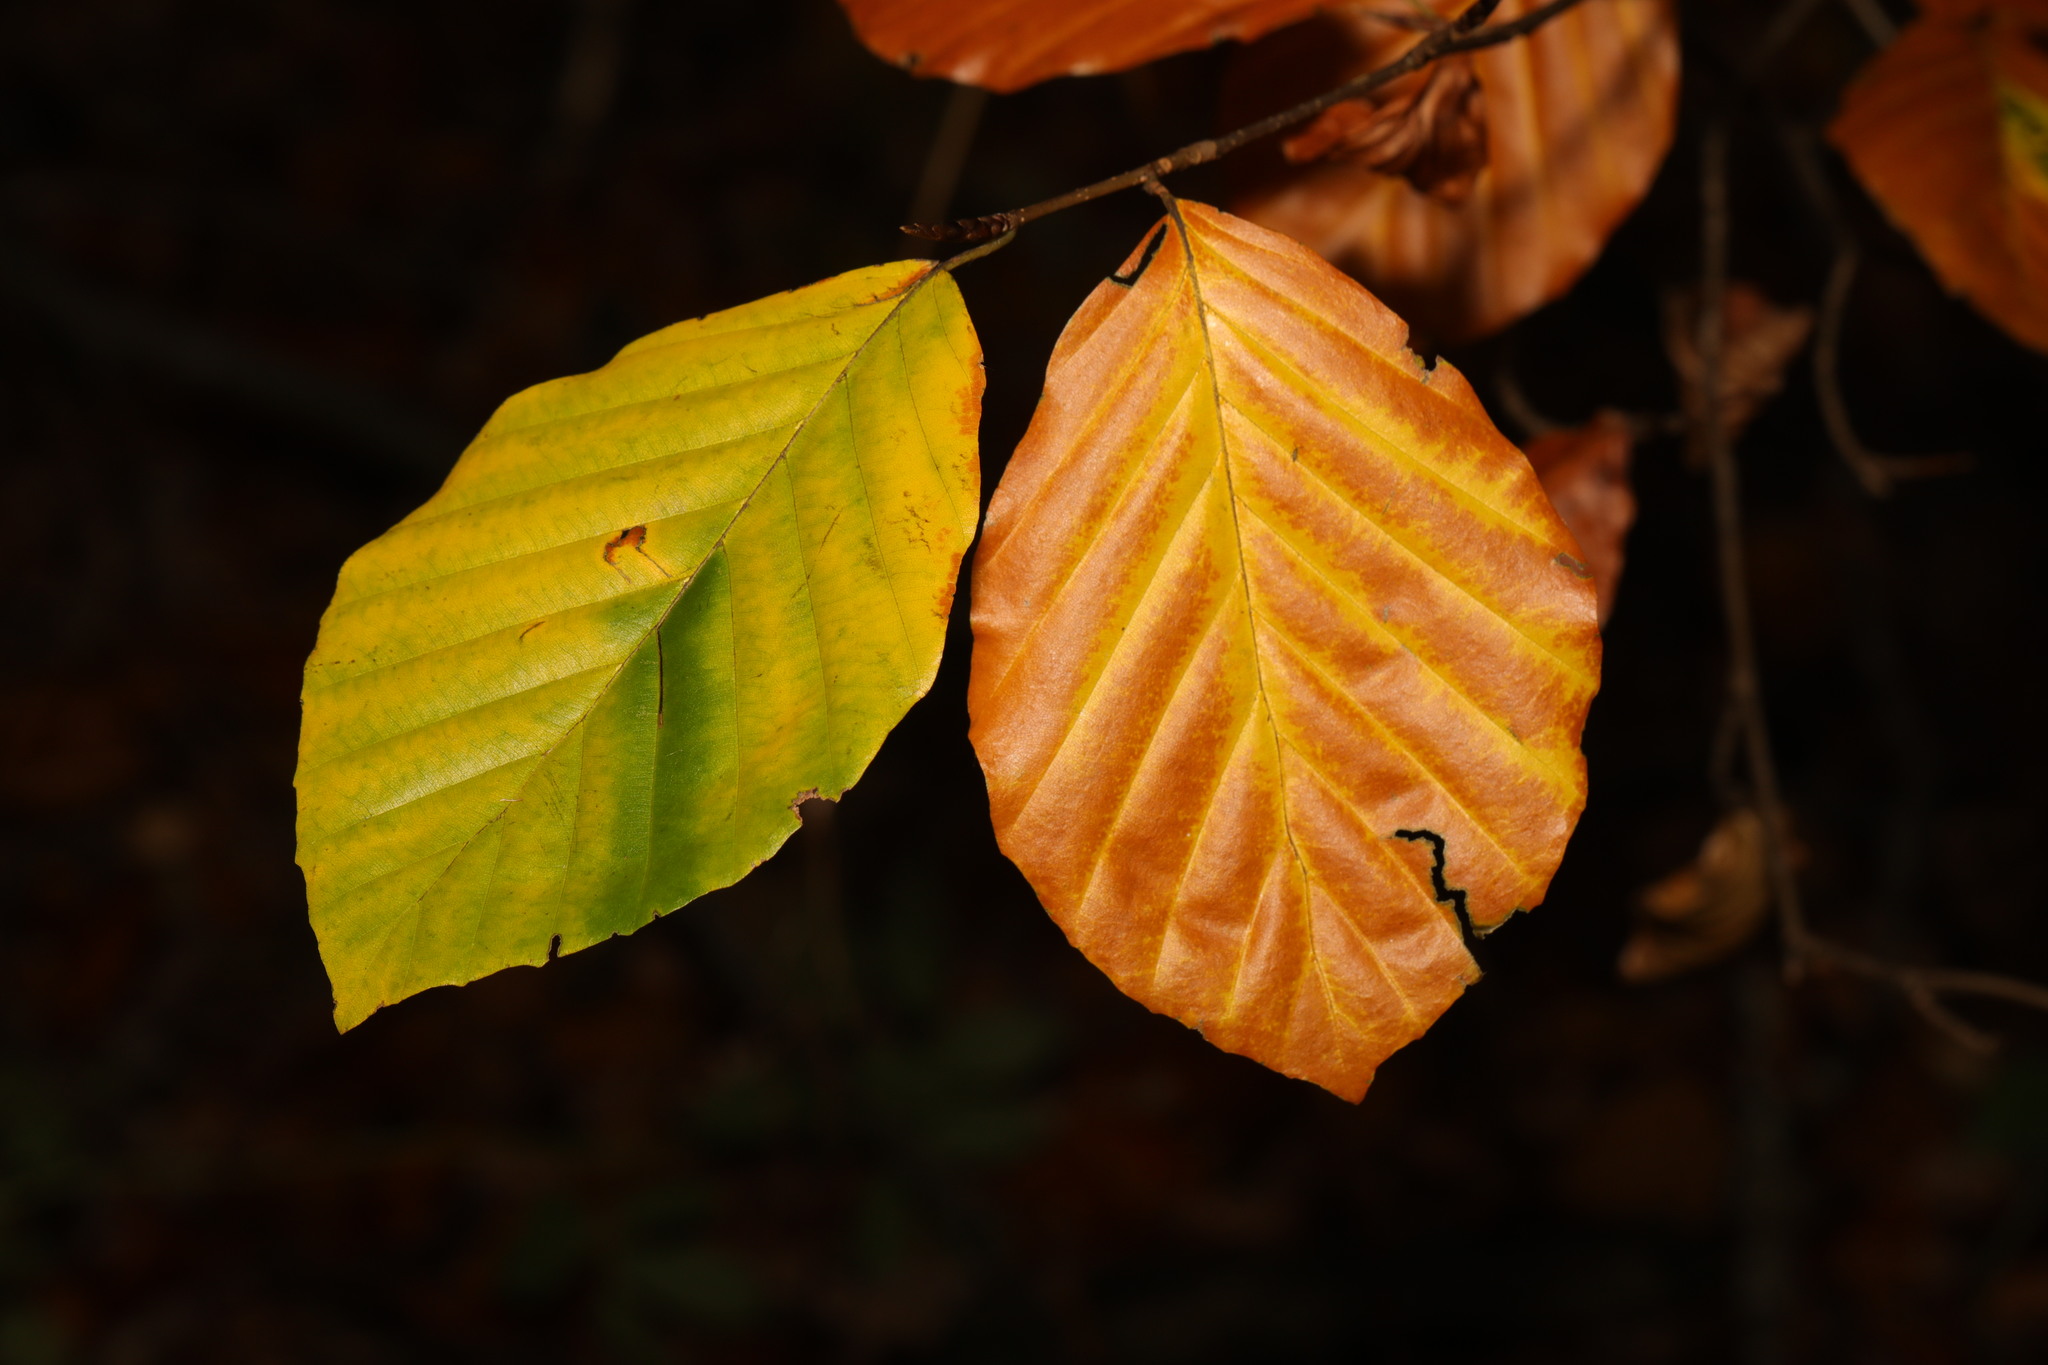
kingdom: Plantae
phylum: Tracheophyta
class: Magnoliopsida
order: Fagales
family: Fagaceae
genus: Fagus
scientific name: Fagus sylvatica
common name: Beech
